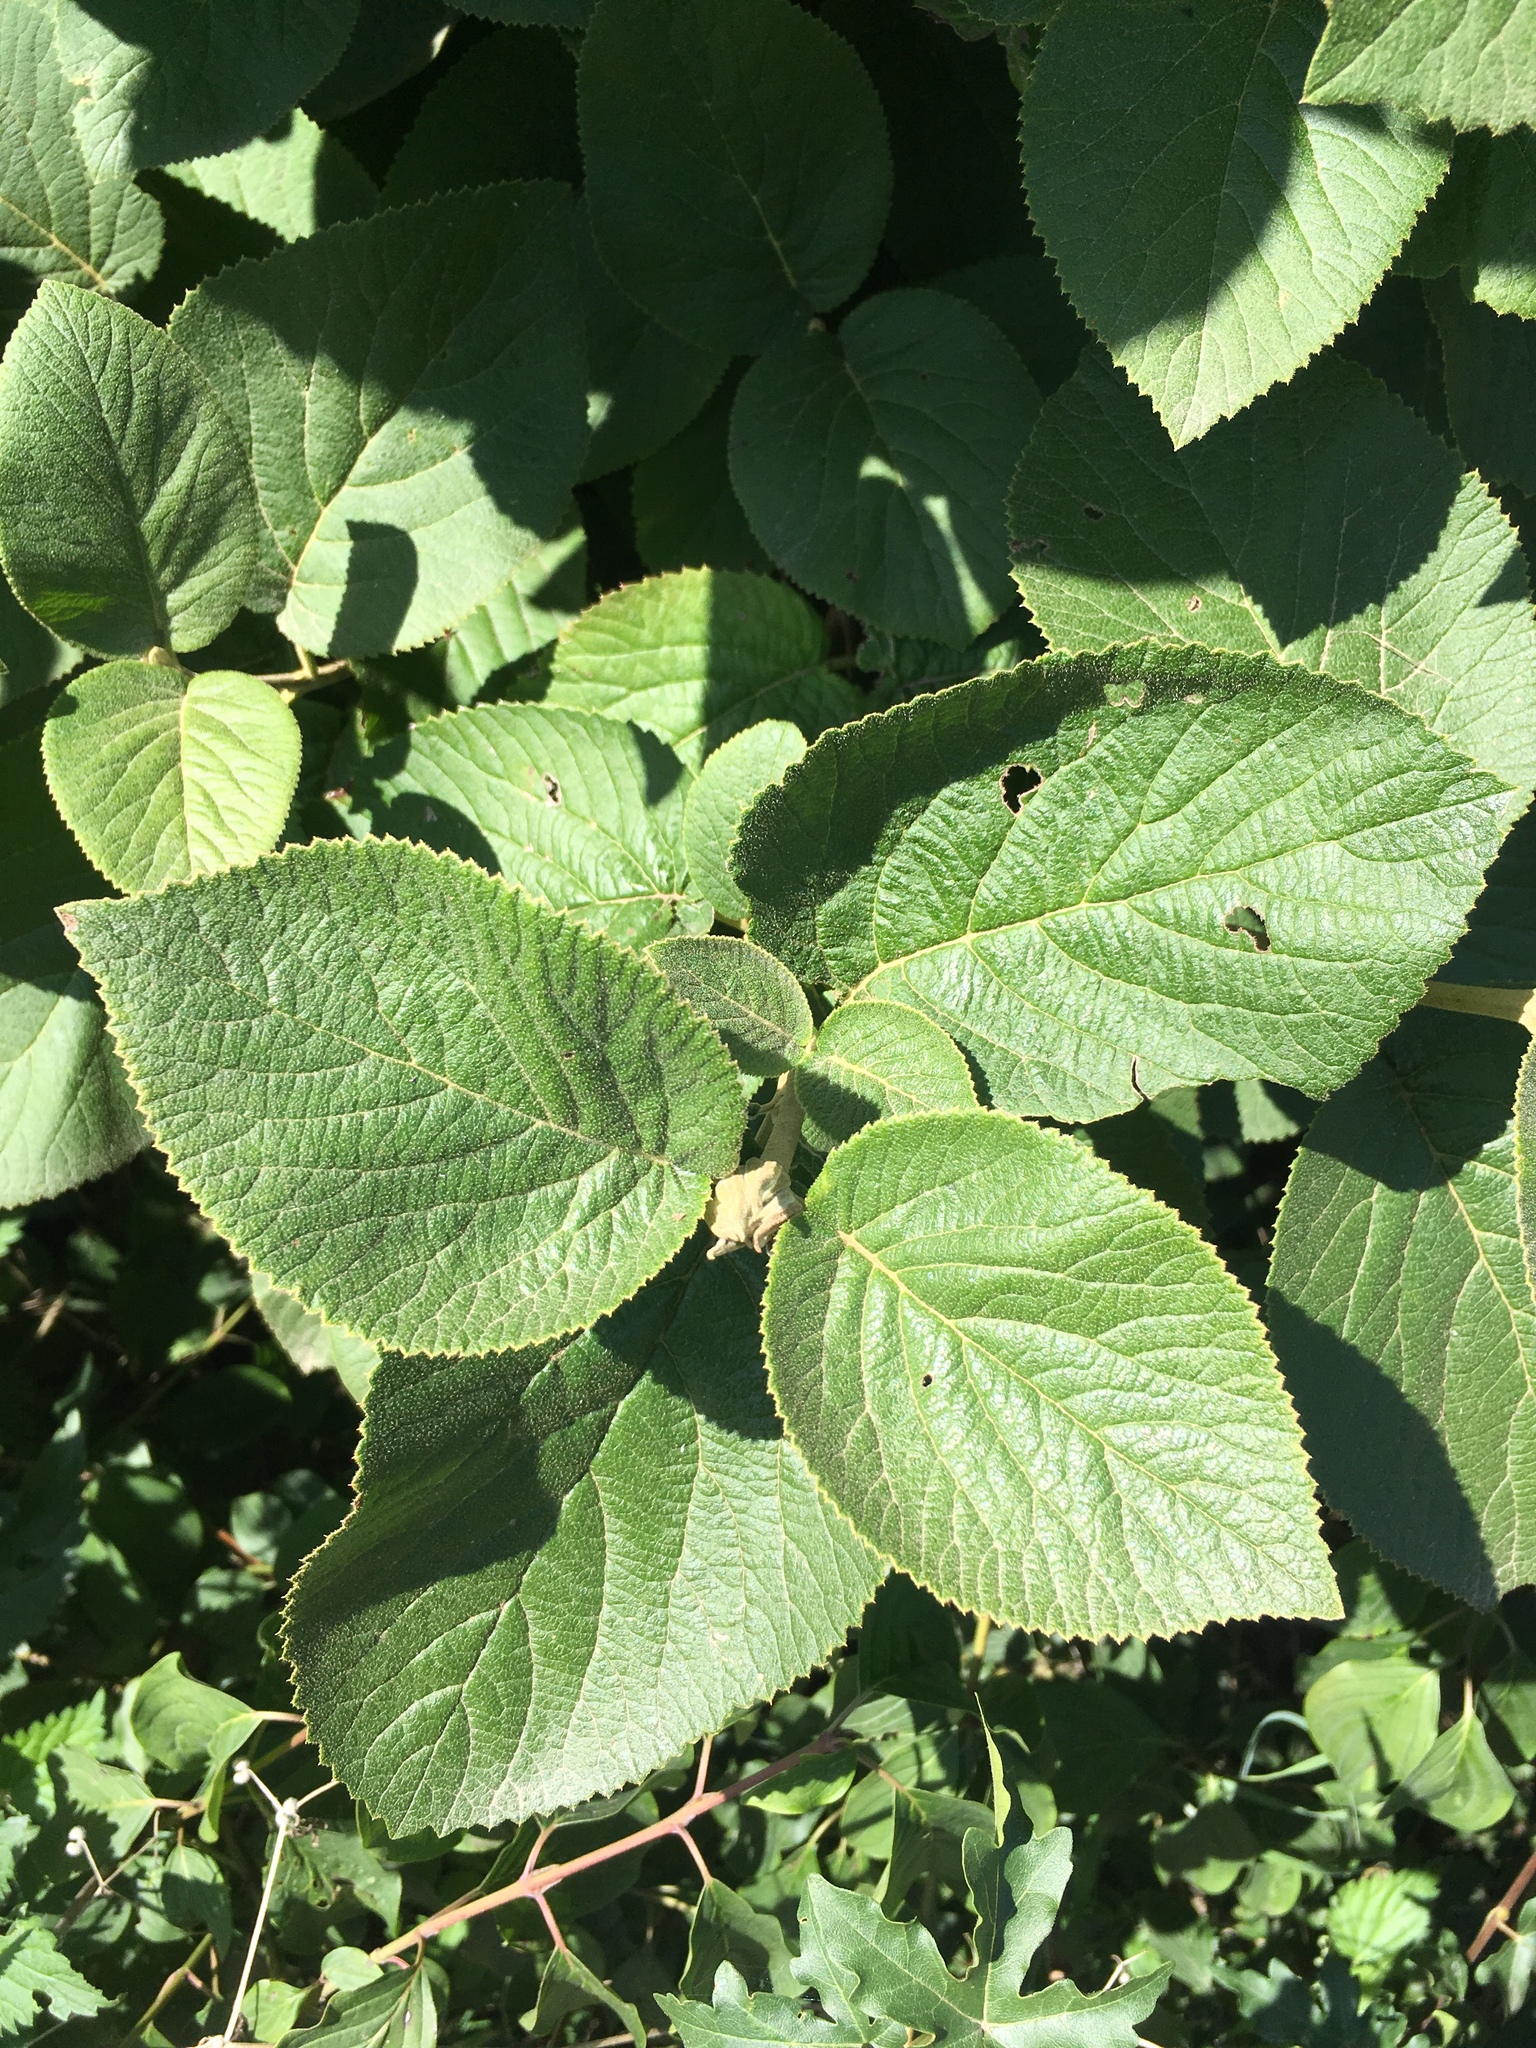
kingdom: Plantae
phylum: Tracheophyta
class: Magnoliopsida
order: Dipsacales
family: Viburnaceae
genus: Viburnum
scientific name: Viburnum lantana
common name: Wayfaring tree
